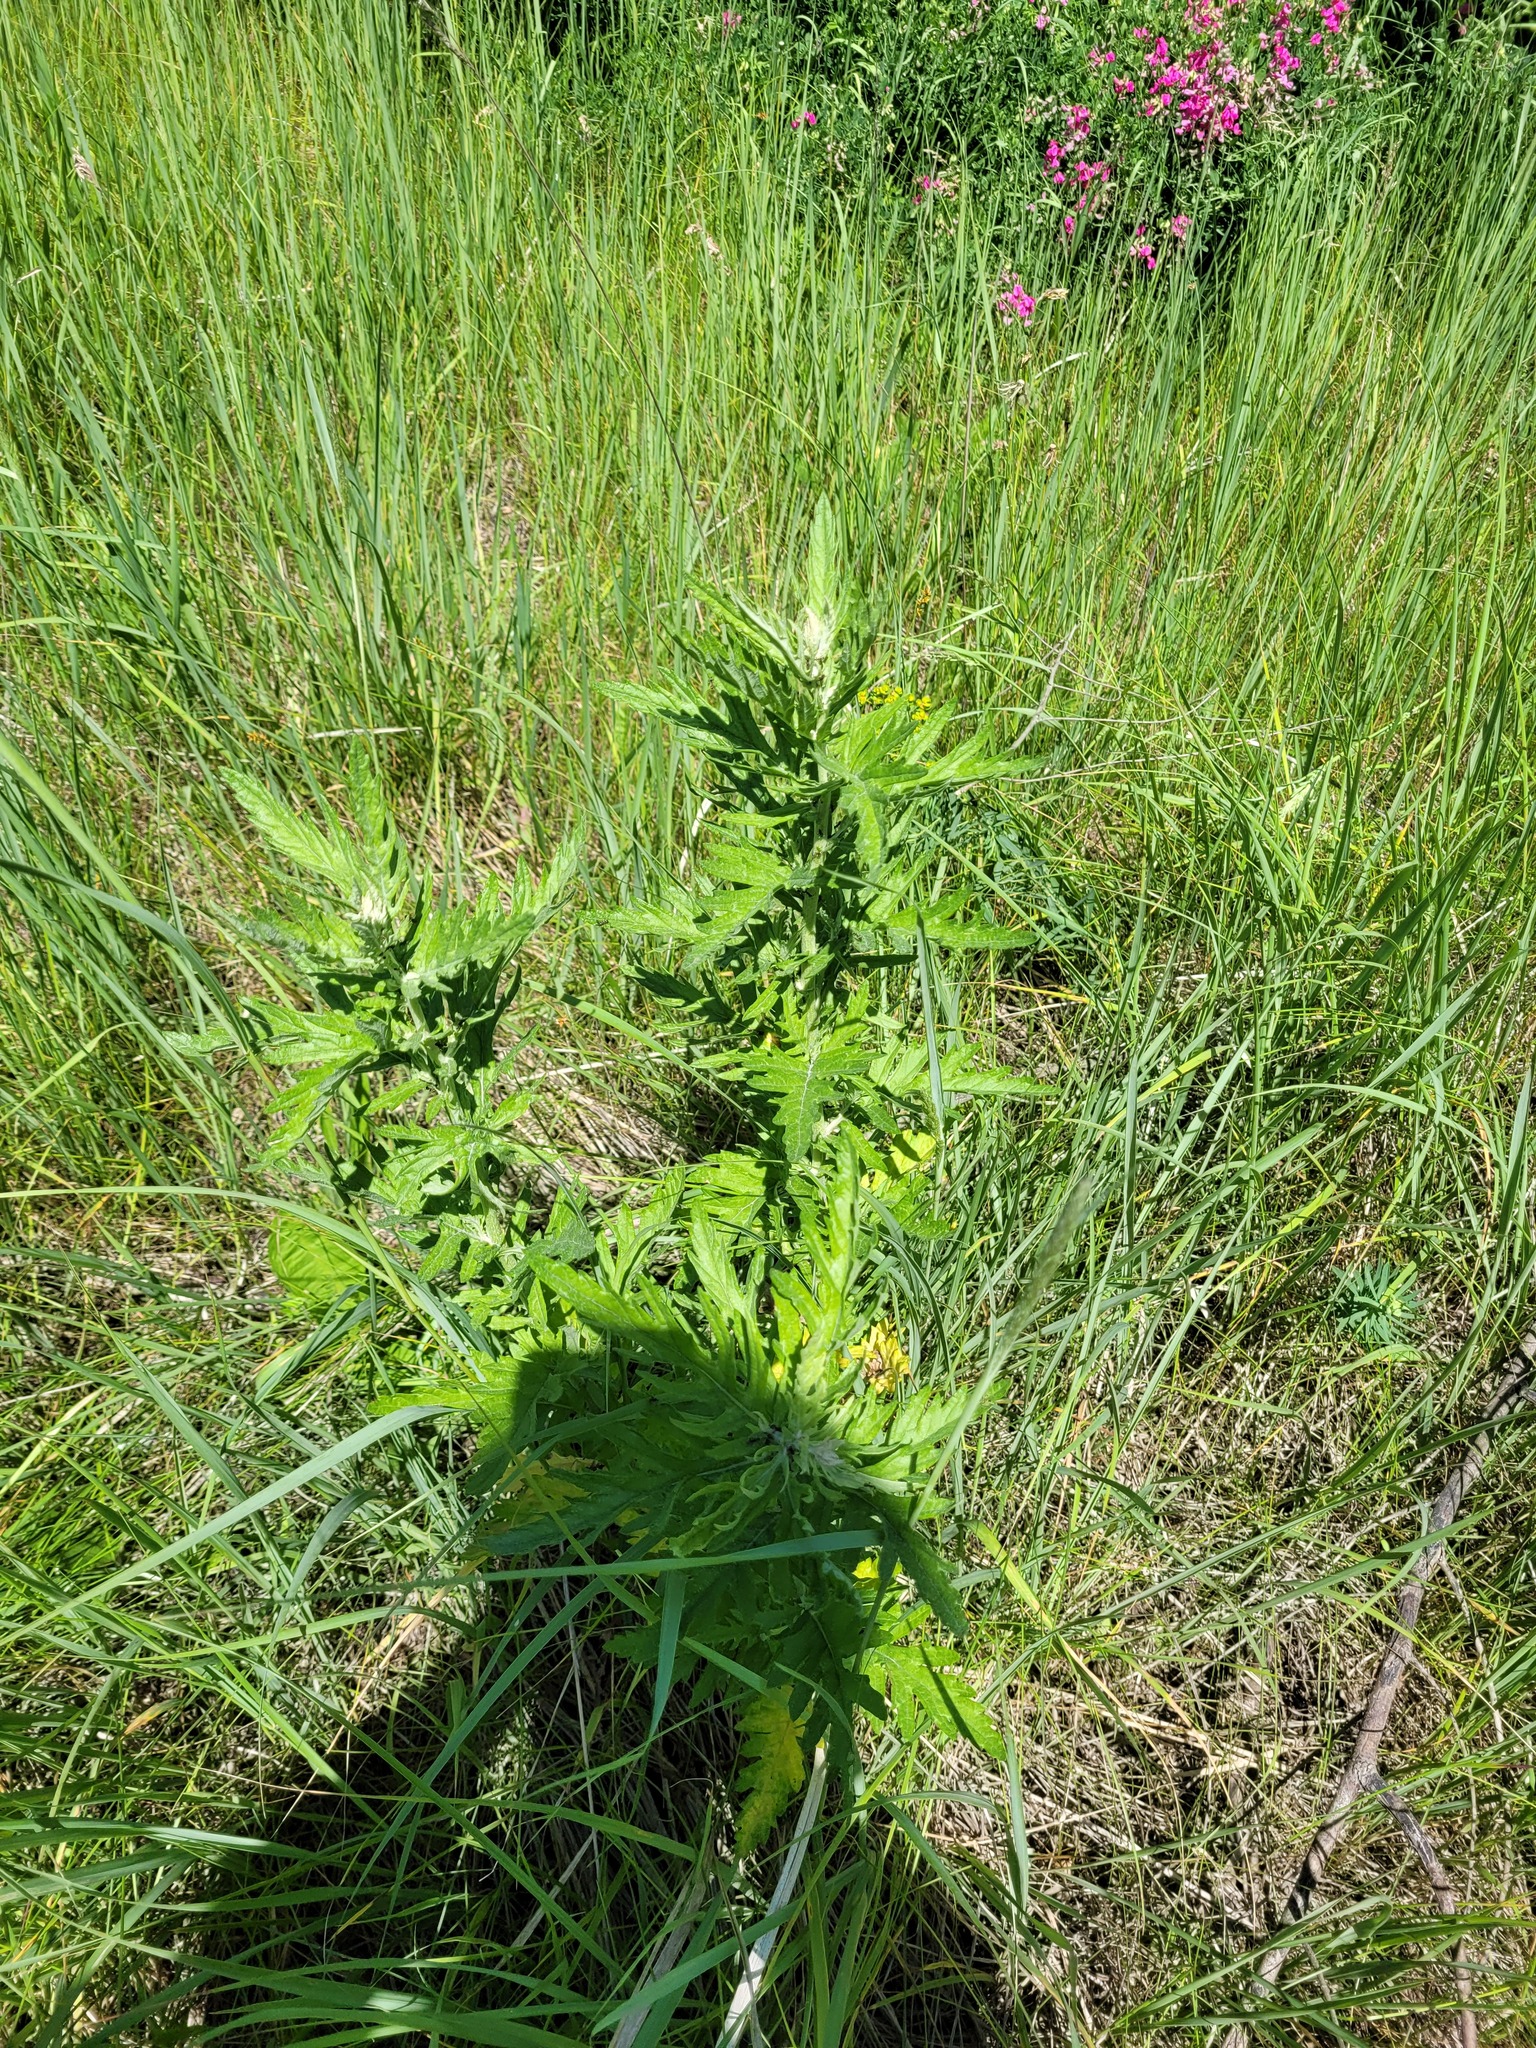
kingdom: Plantae
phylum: Tracheophyta
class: Magnoliopsida
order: Asterales
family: Asteraceae
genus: Jacobaea
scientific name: Jacobaea erucifolia
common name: Hoary ragwort
